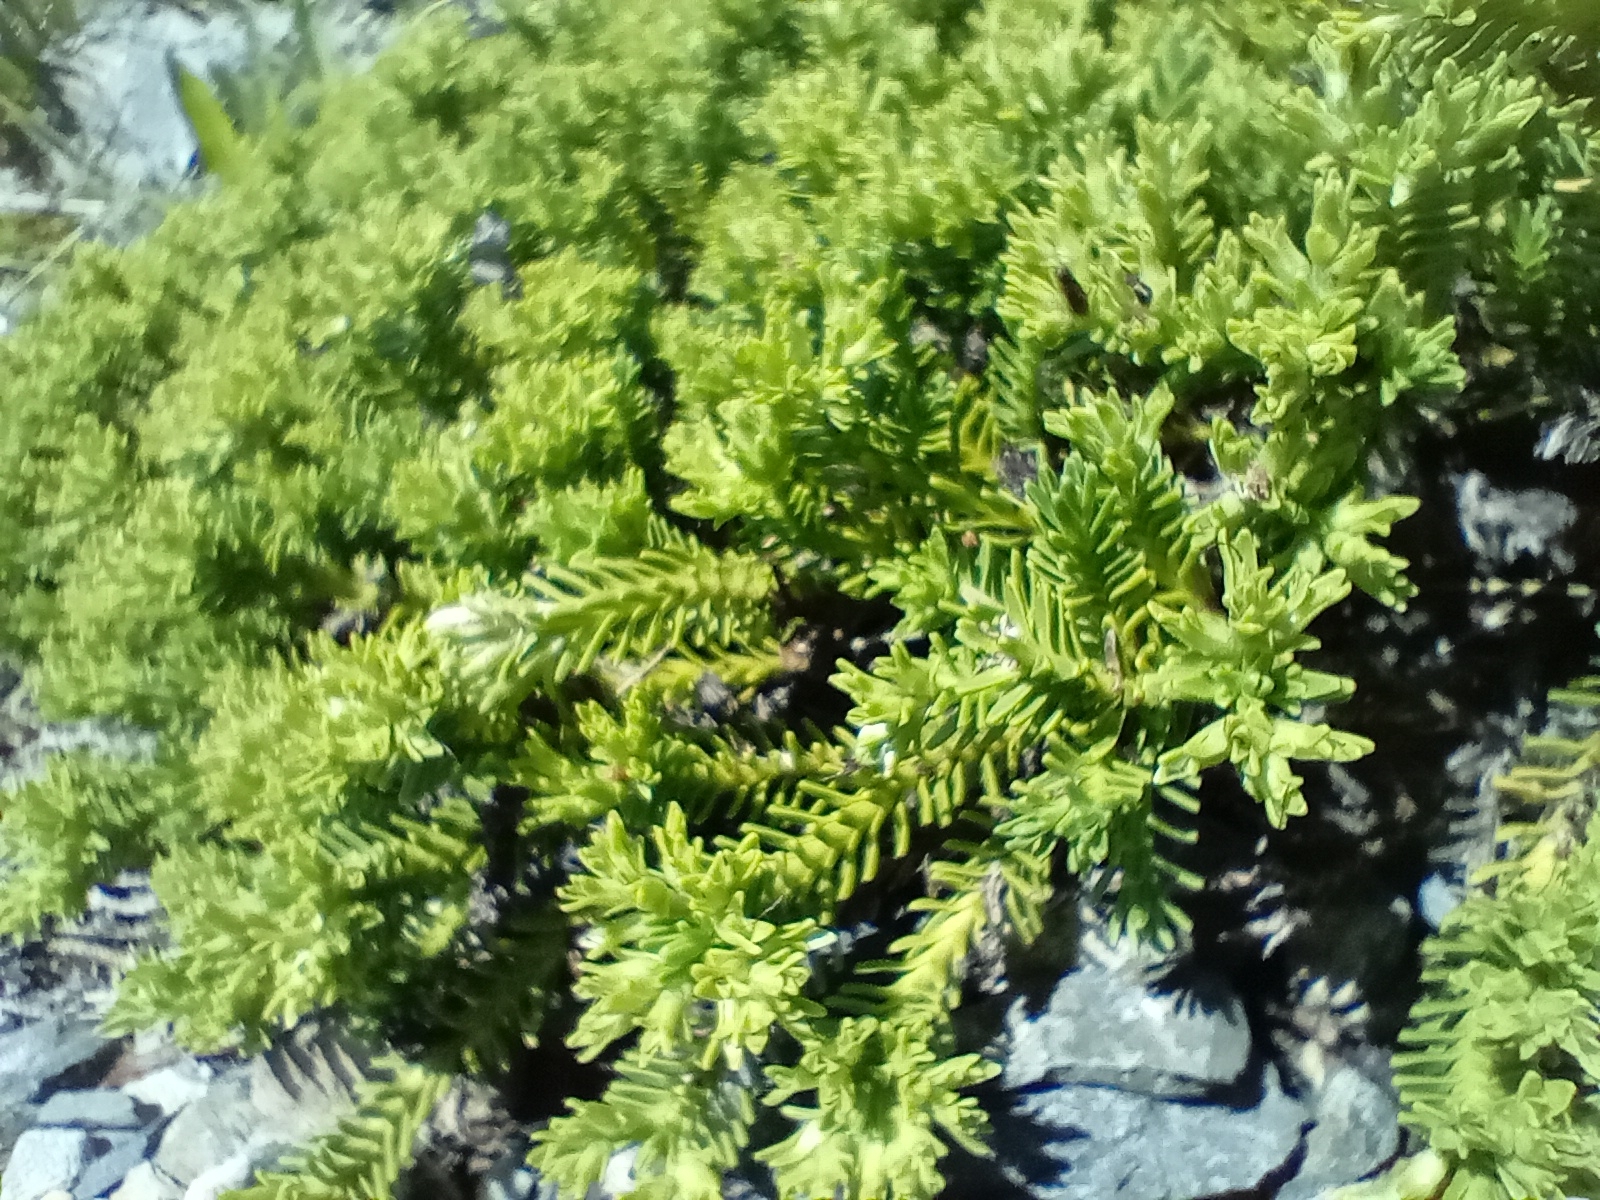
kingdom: Plantae
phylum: Tracheophyta
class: Magnoliopsida
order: Lamiales
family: Plantaginaceae
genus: Veronica
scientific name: Veronica hookeri
